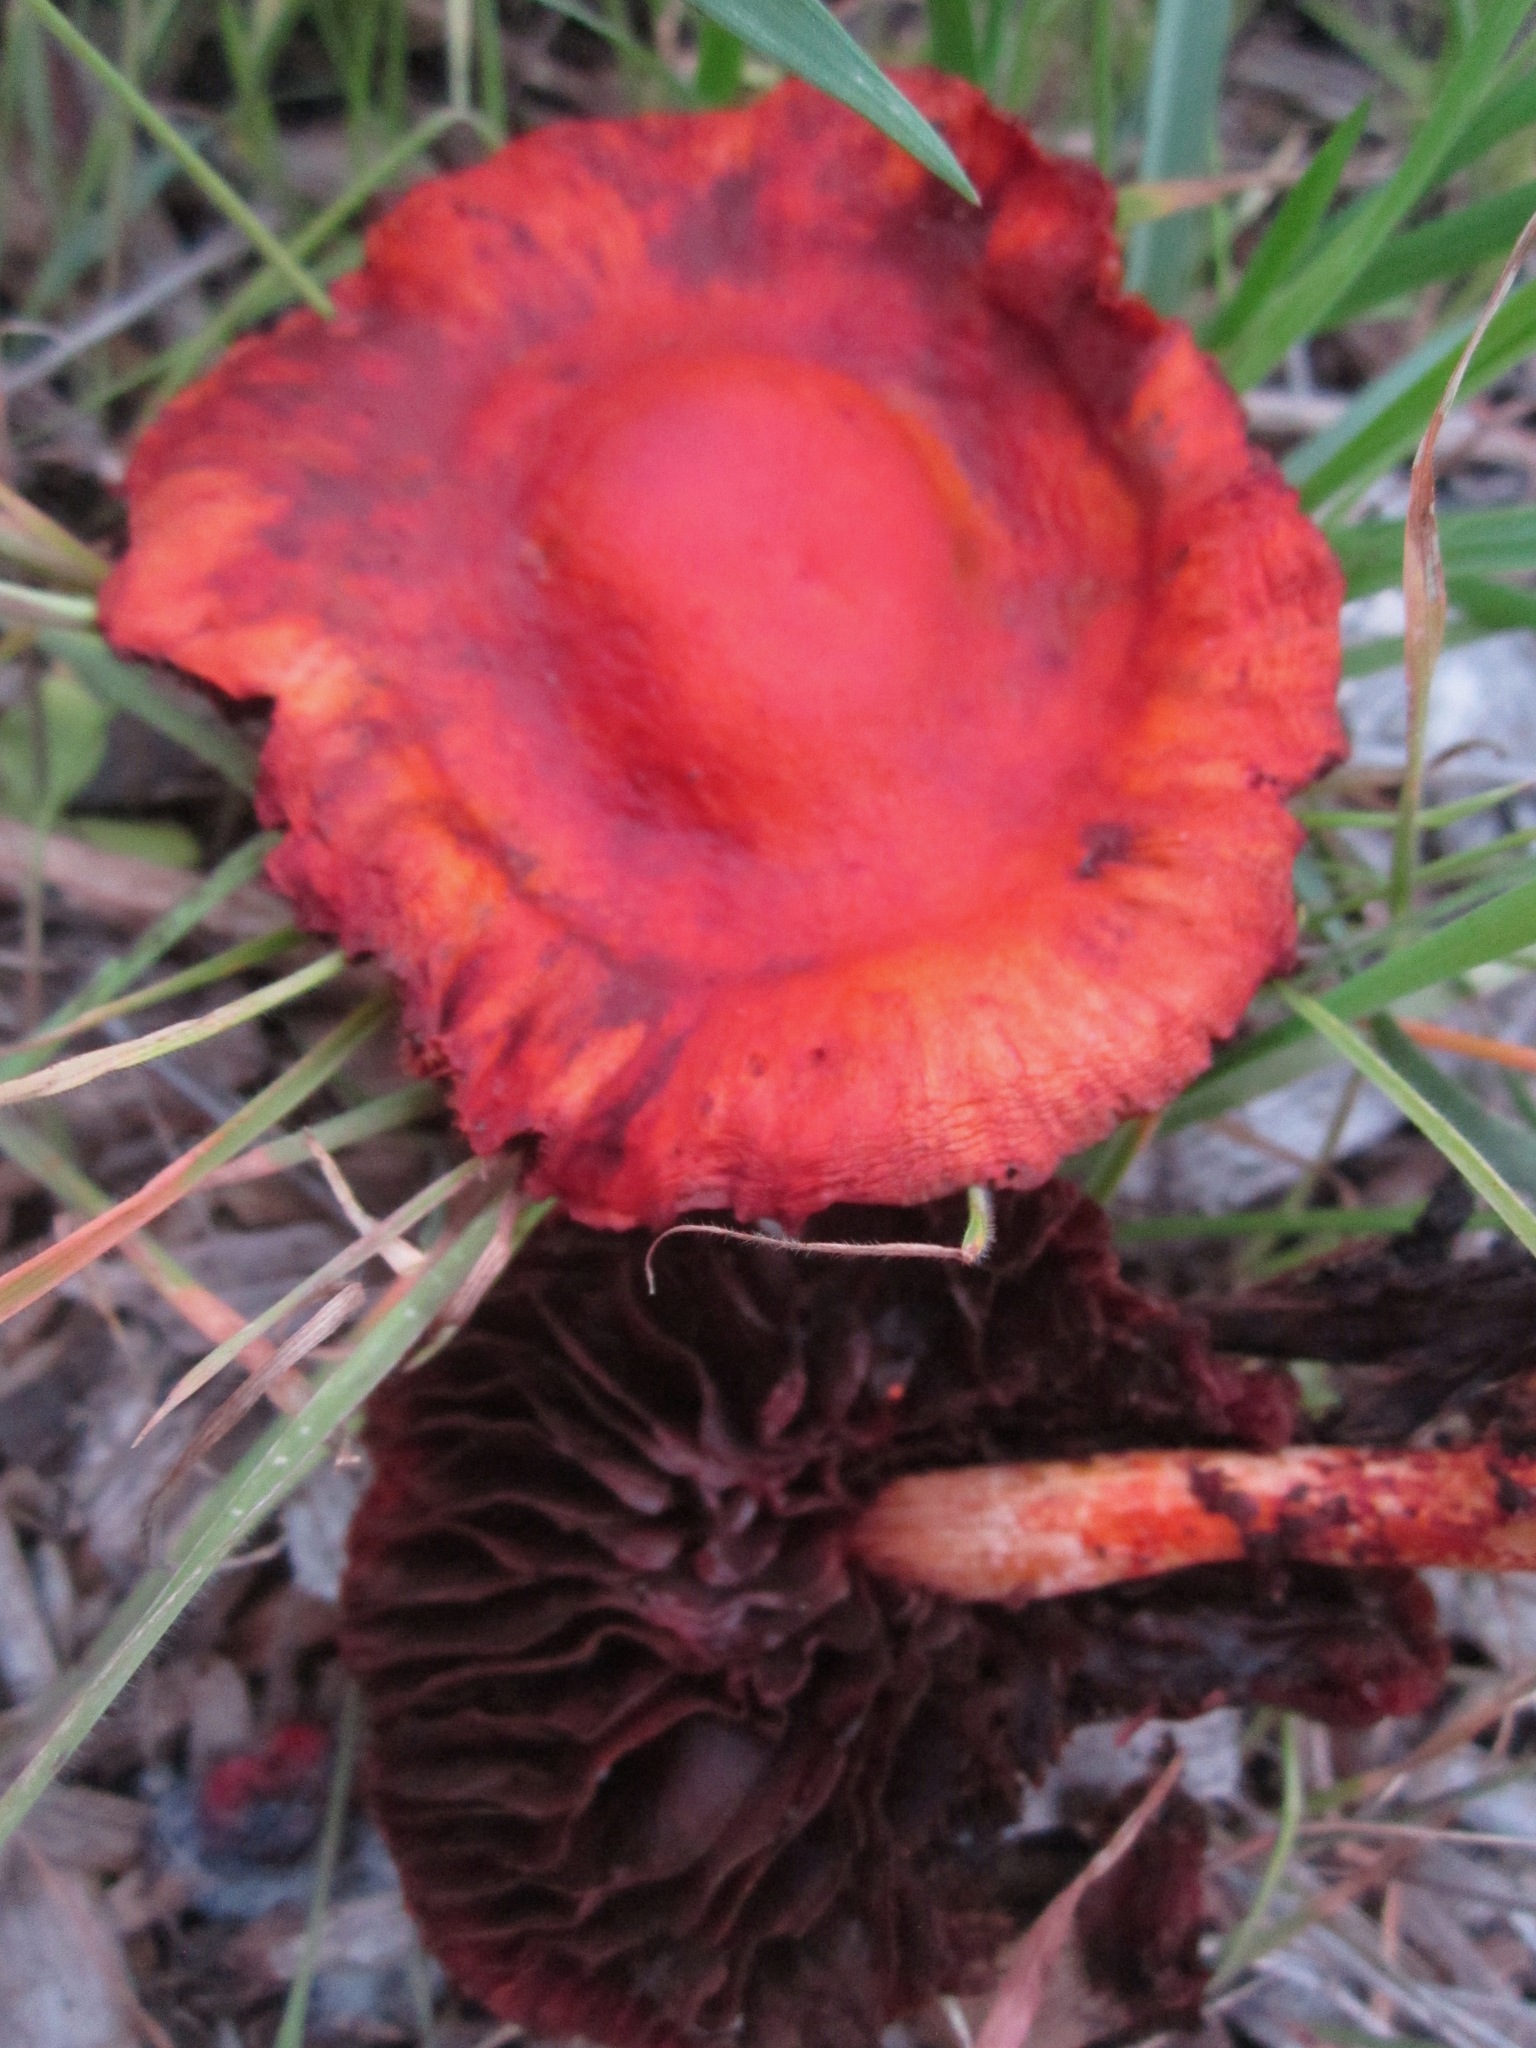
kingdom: Fungi
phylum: Basidiomycota
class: Agaricomycetes
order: Agaricales
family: Strophariaceae
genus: Leratiomyces
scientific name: Leratiomyces ceres
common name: Redlead roundhead
